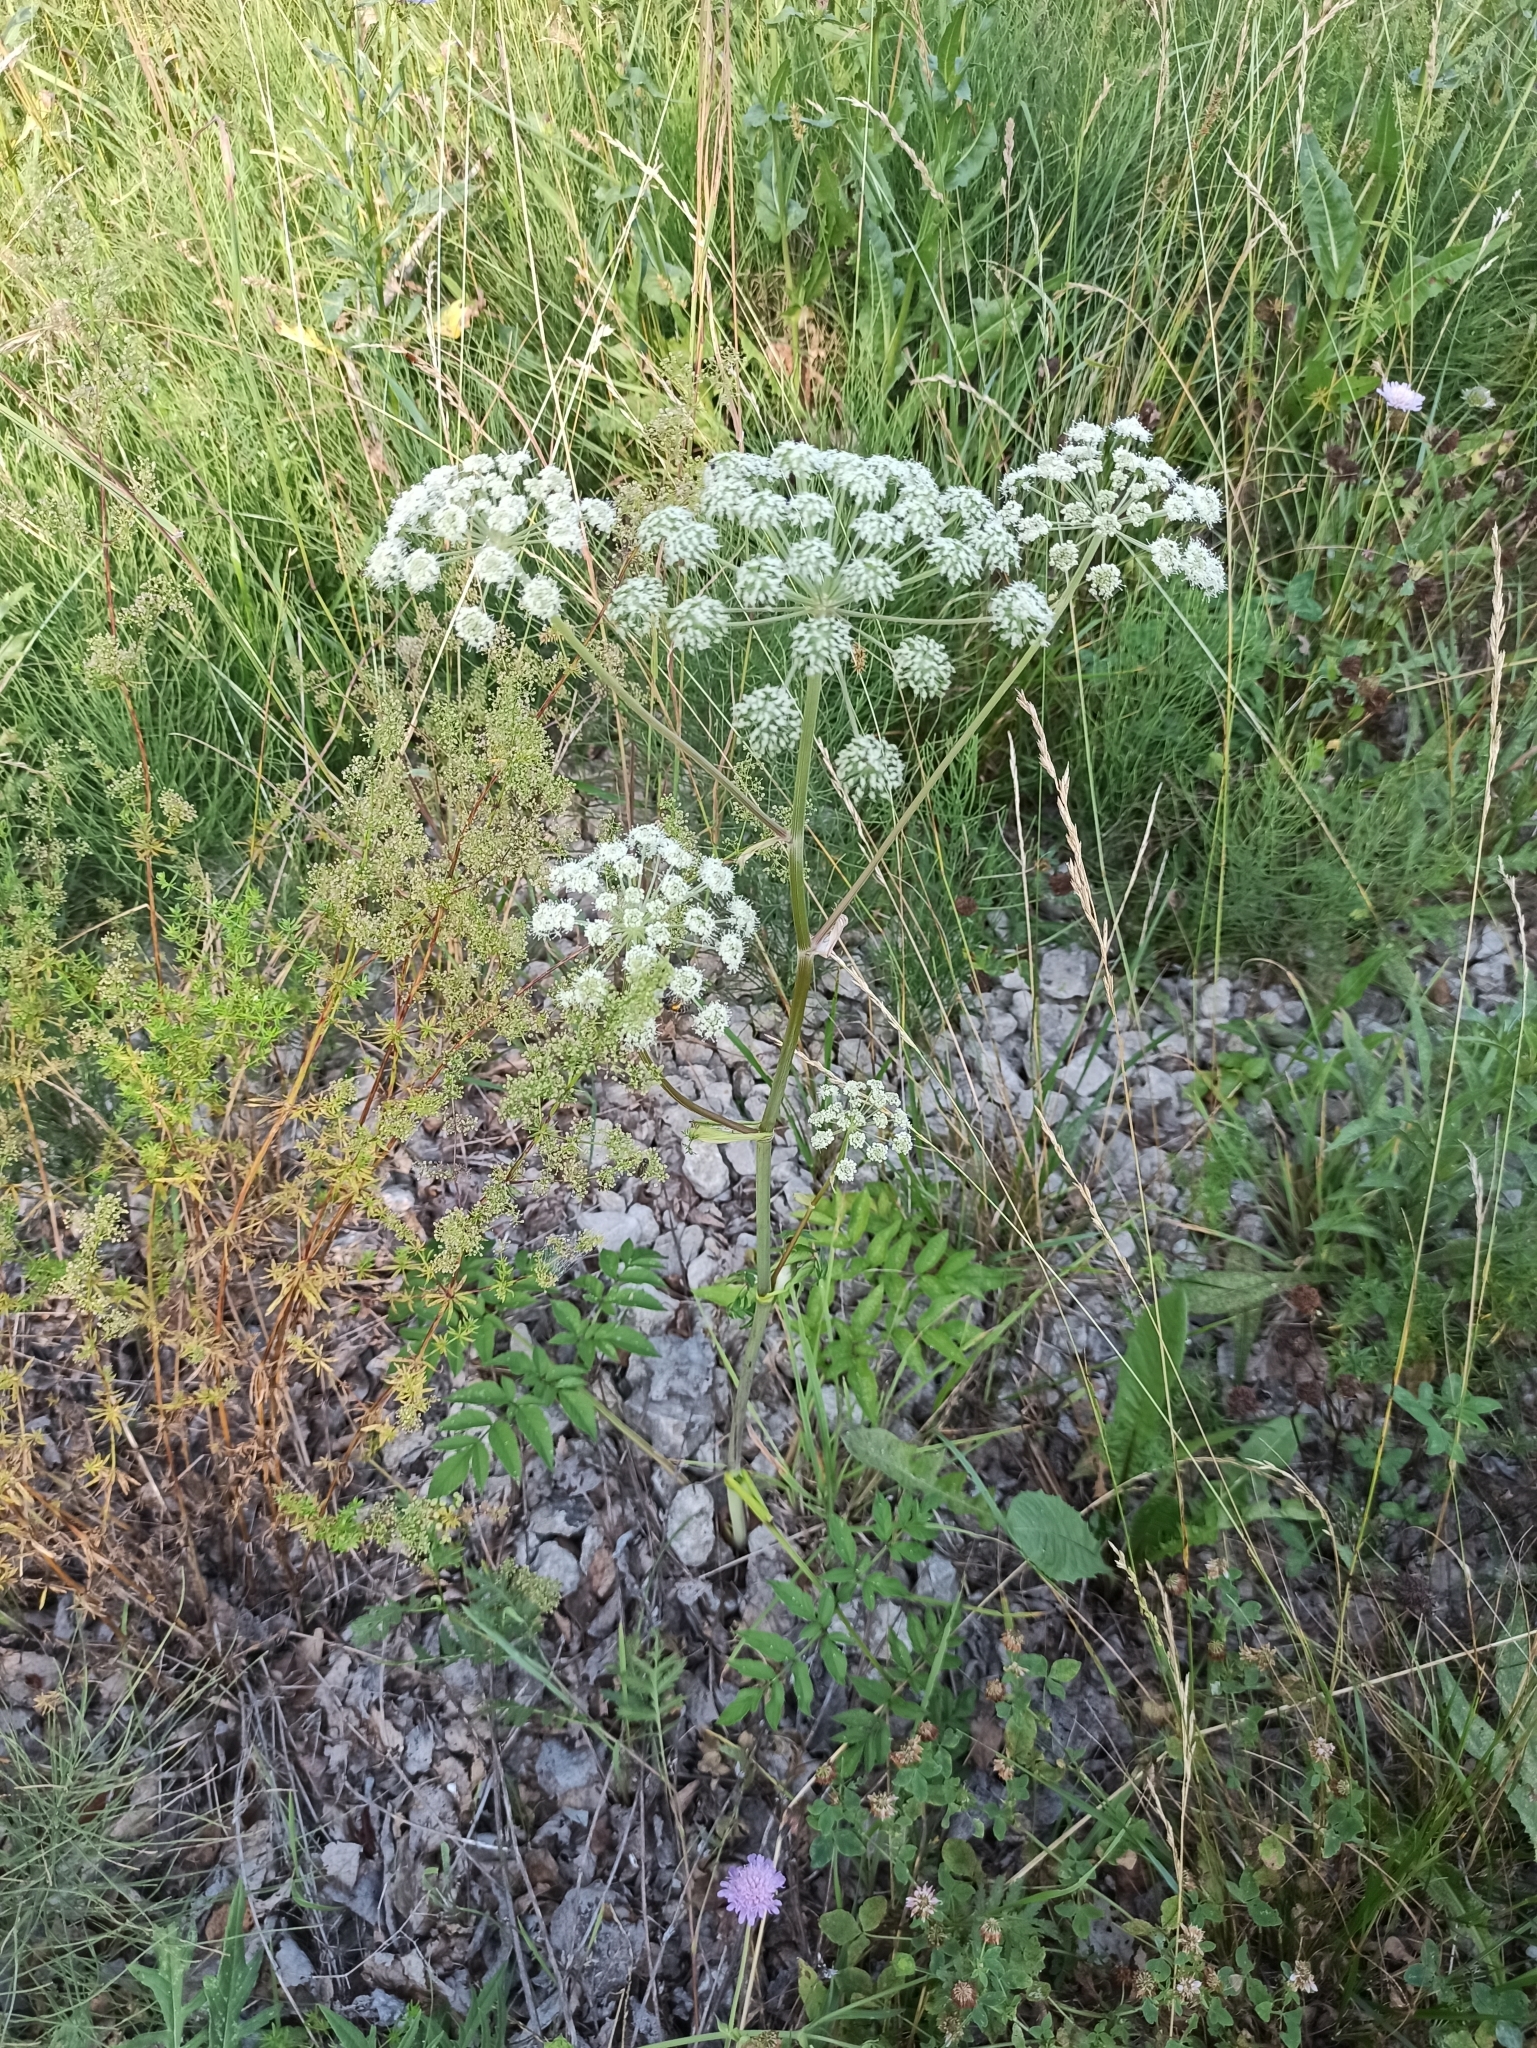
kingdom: Plantae
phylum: Tracheophyta
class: Magnoliopsida
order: Apiales
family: Apiaceae
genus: Angelica
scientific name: Angelica sylvestris
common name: Wild angelica
